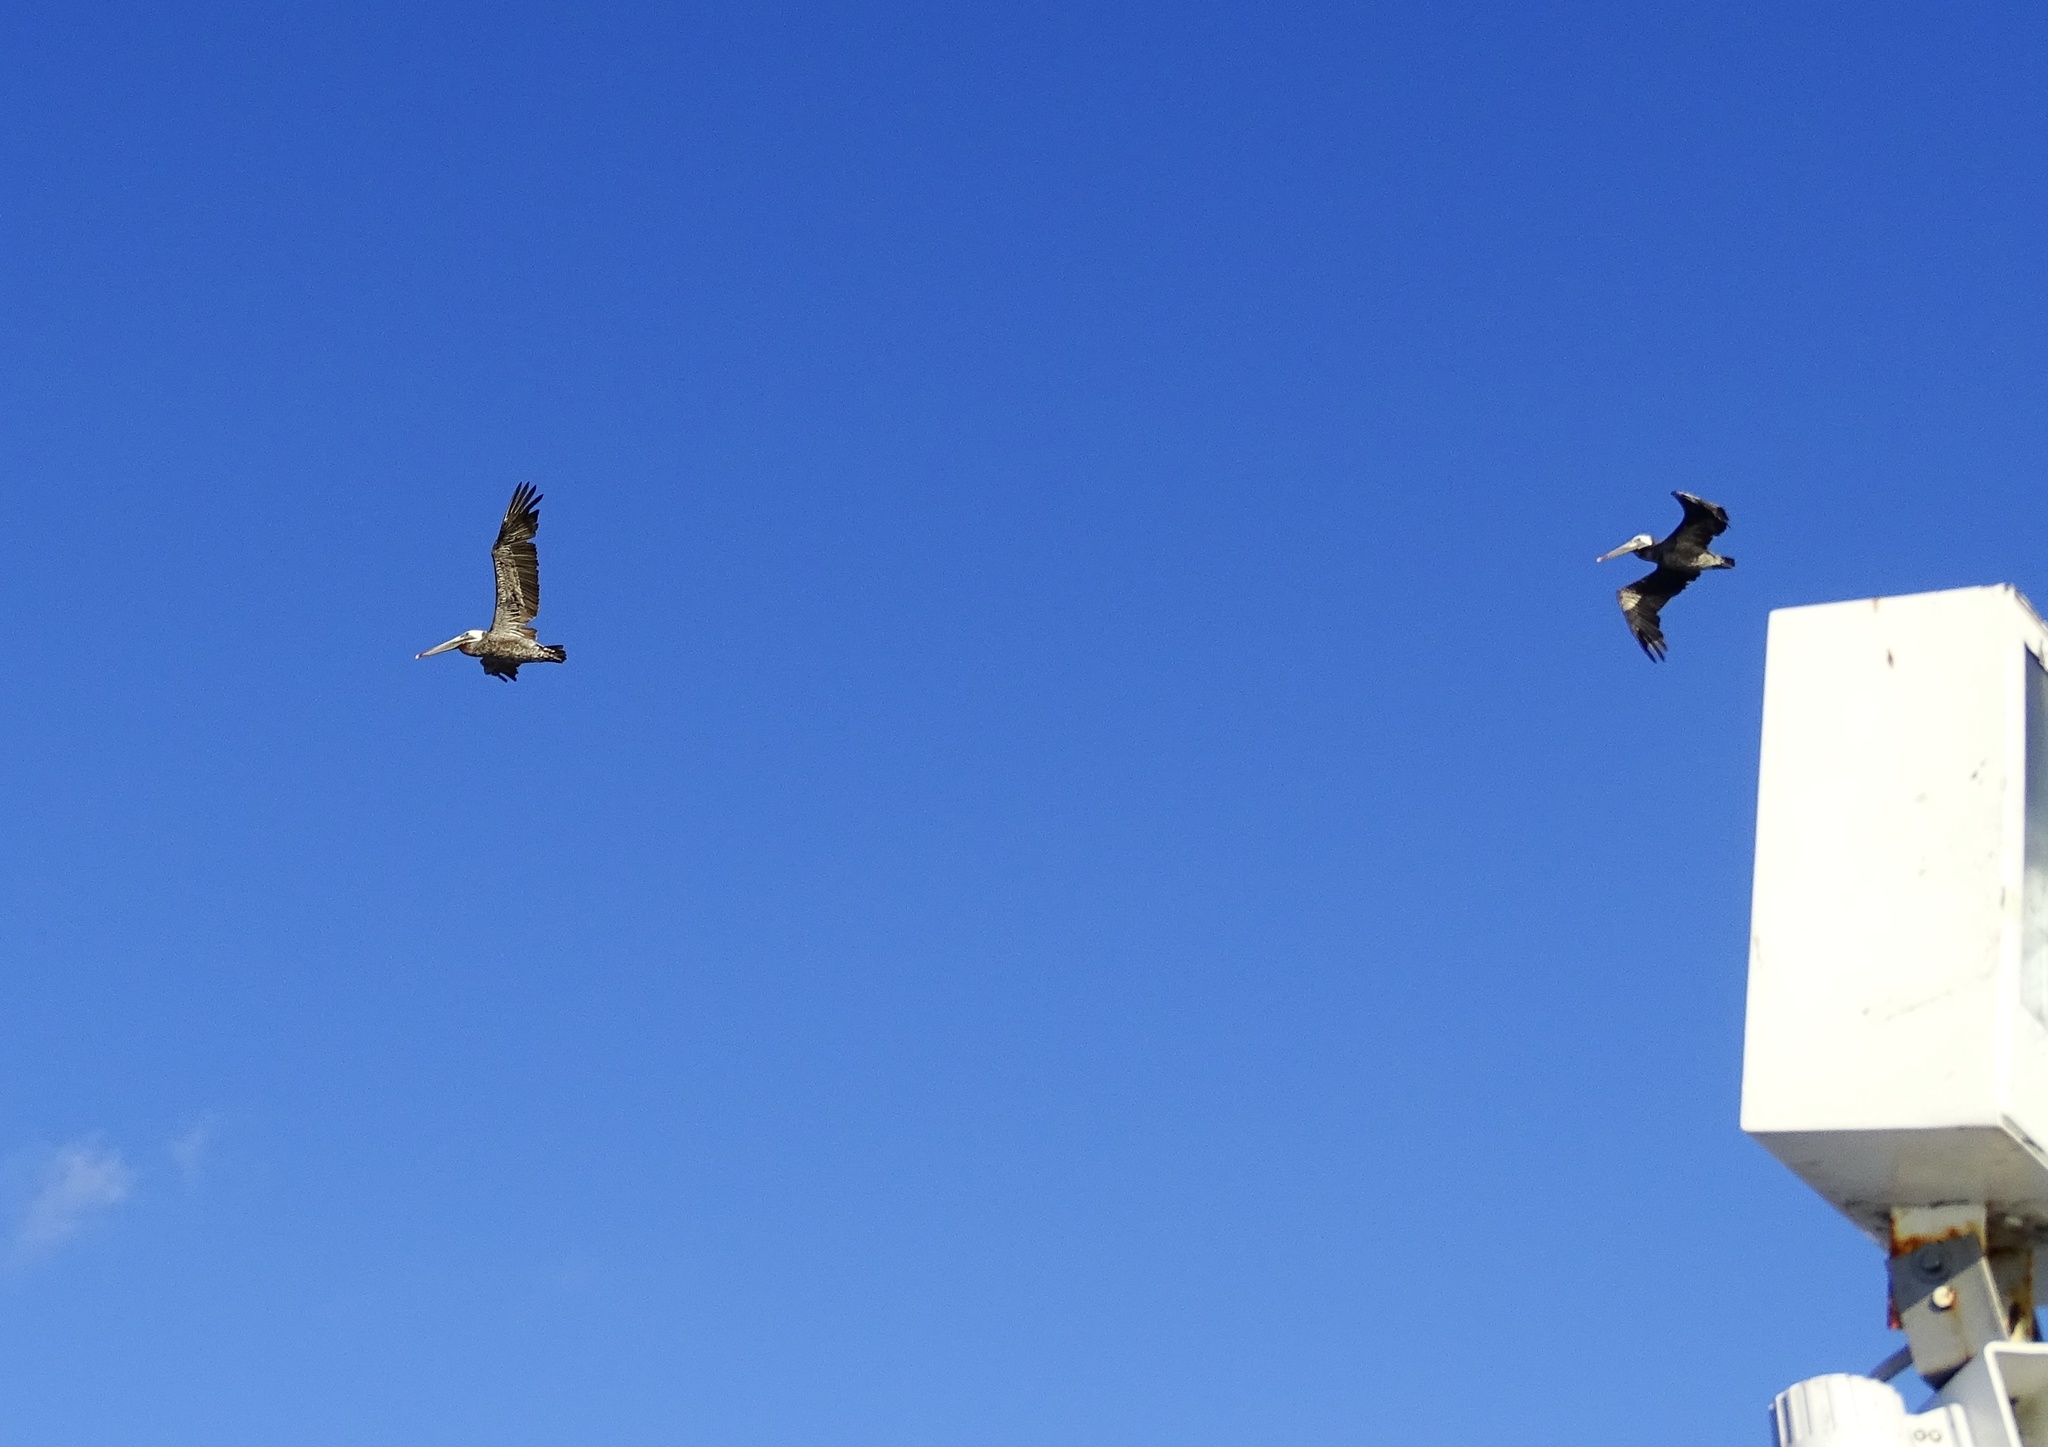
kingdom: Animalia
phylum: Chordata
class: Aves
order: Pelecaniformes
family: Pelecanidae
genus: Pelecanus
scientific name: Pelecanus occidentalis
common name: Brown pelican
